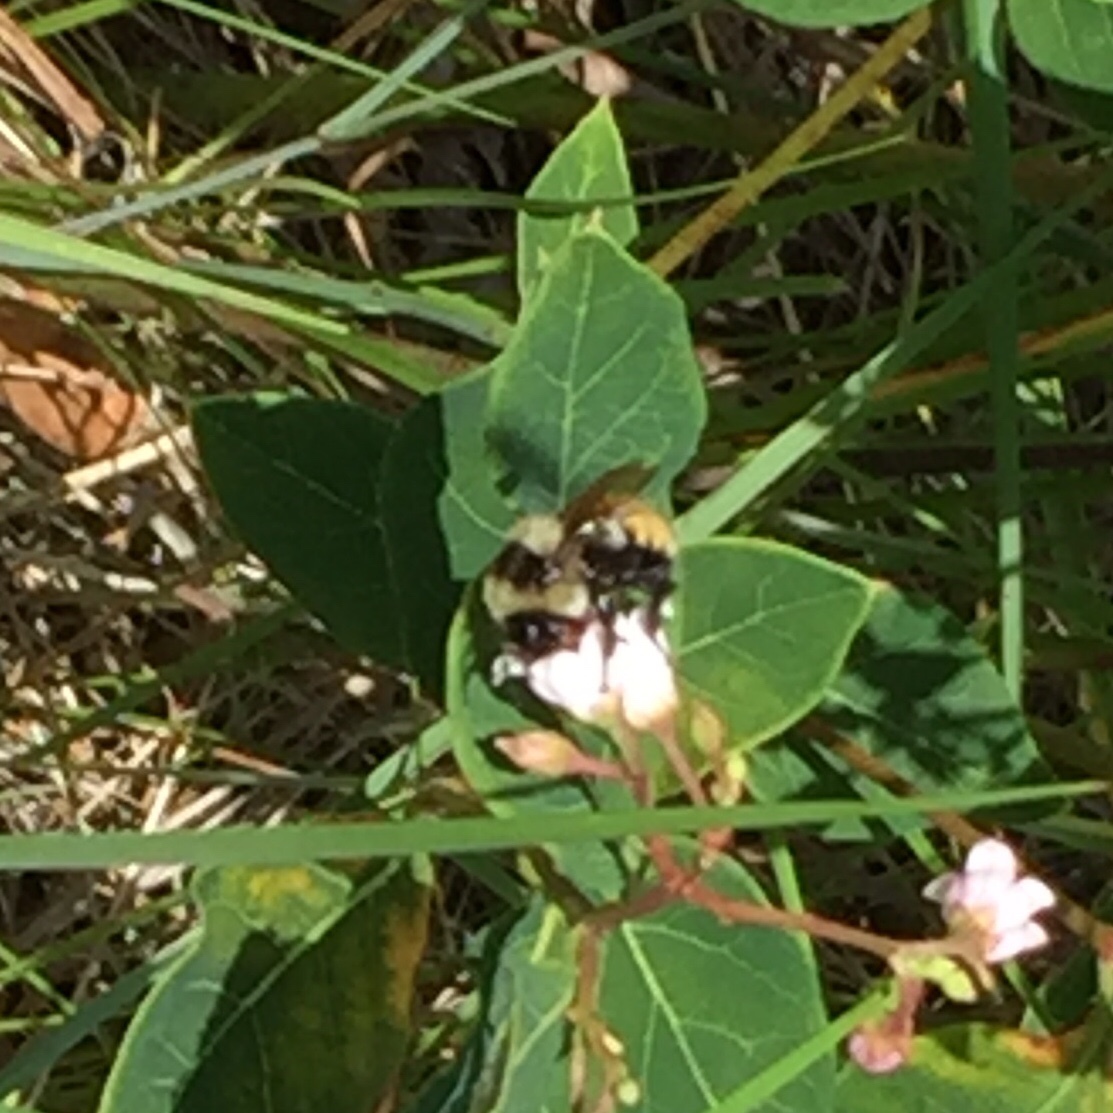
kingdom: Animalia
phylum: Arthropoda
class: Insecta
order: Hymenoptera
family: Apidae
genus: Bombus
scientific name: Bombus ternarius
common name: Tri-colored bumble bee
